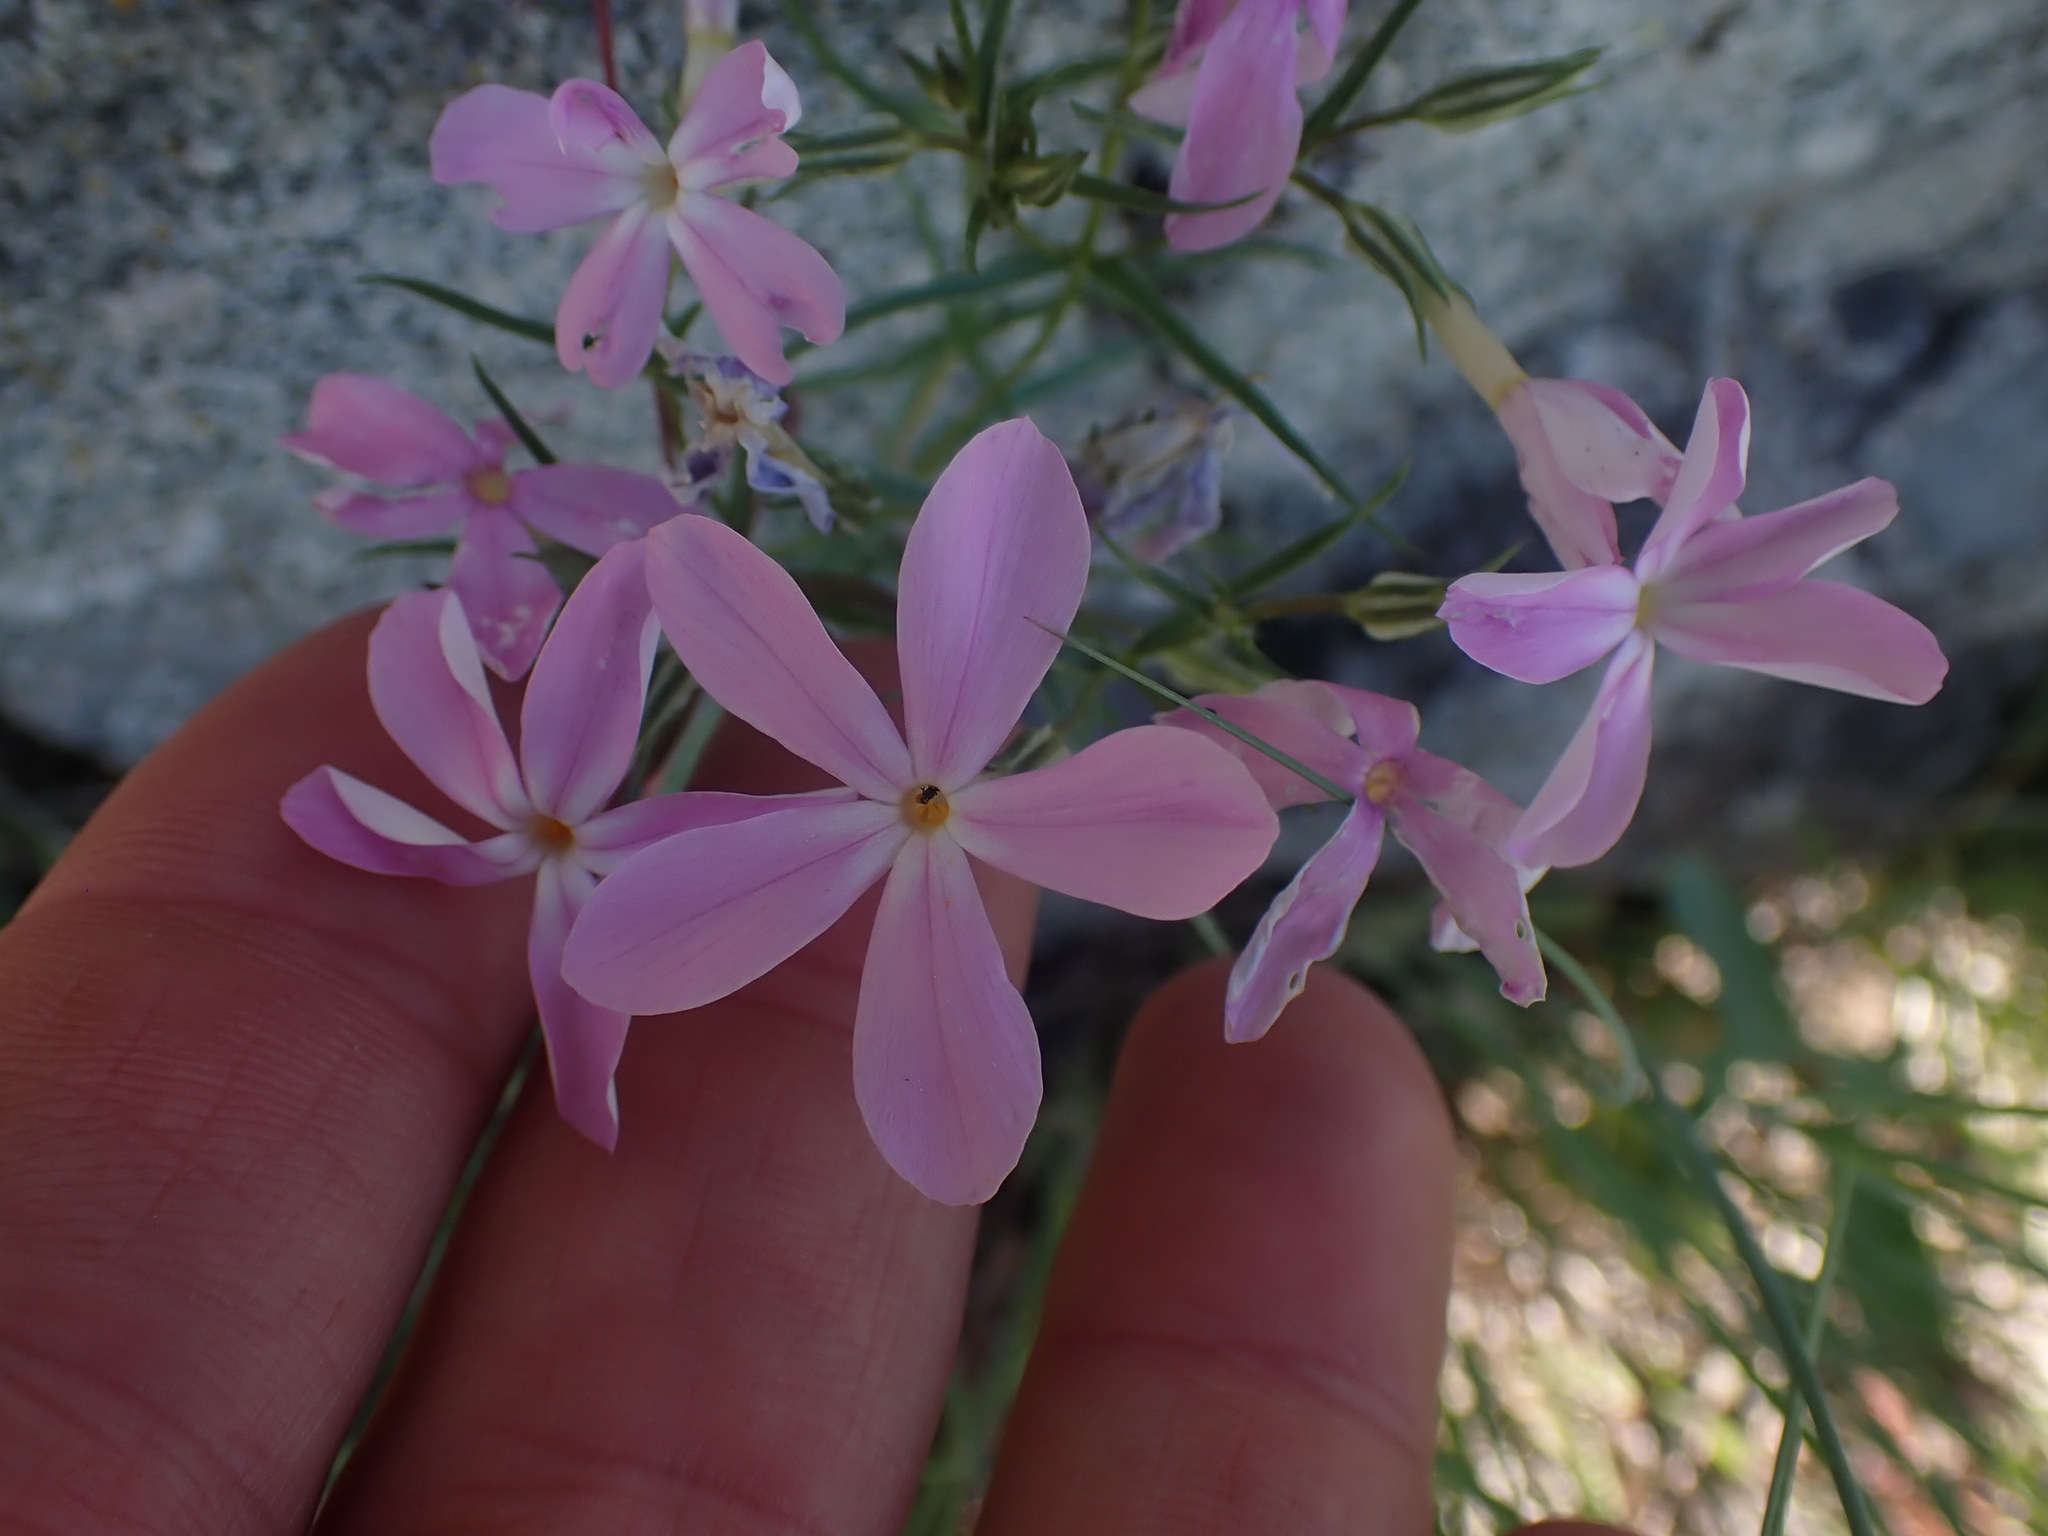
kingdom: Plantae
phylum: Tracheophyta
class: Magnoliopsida
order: Ericales
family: Polemoniaceae
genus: Phlox
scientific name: Phlox longifolia
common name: Longleaf phlox
